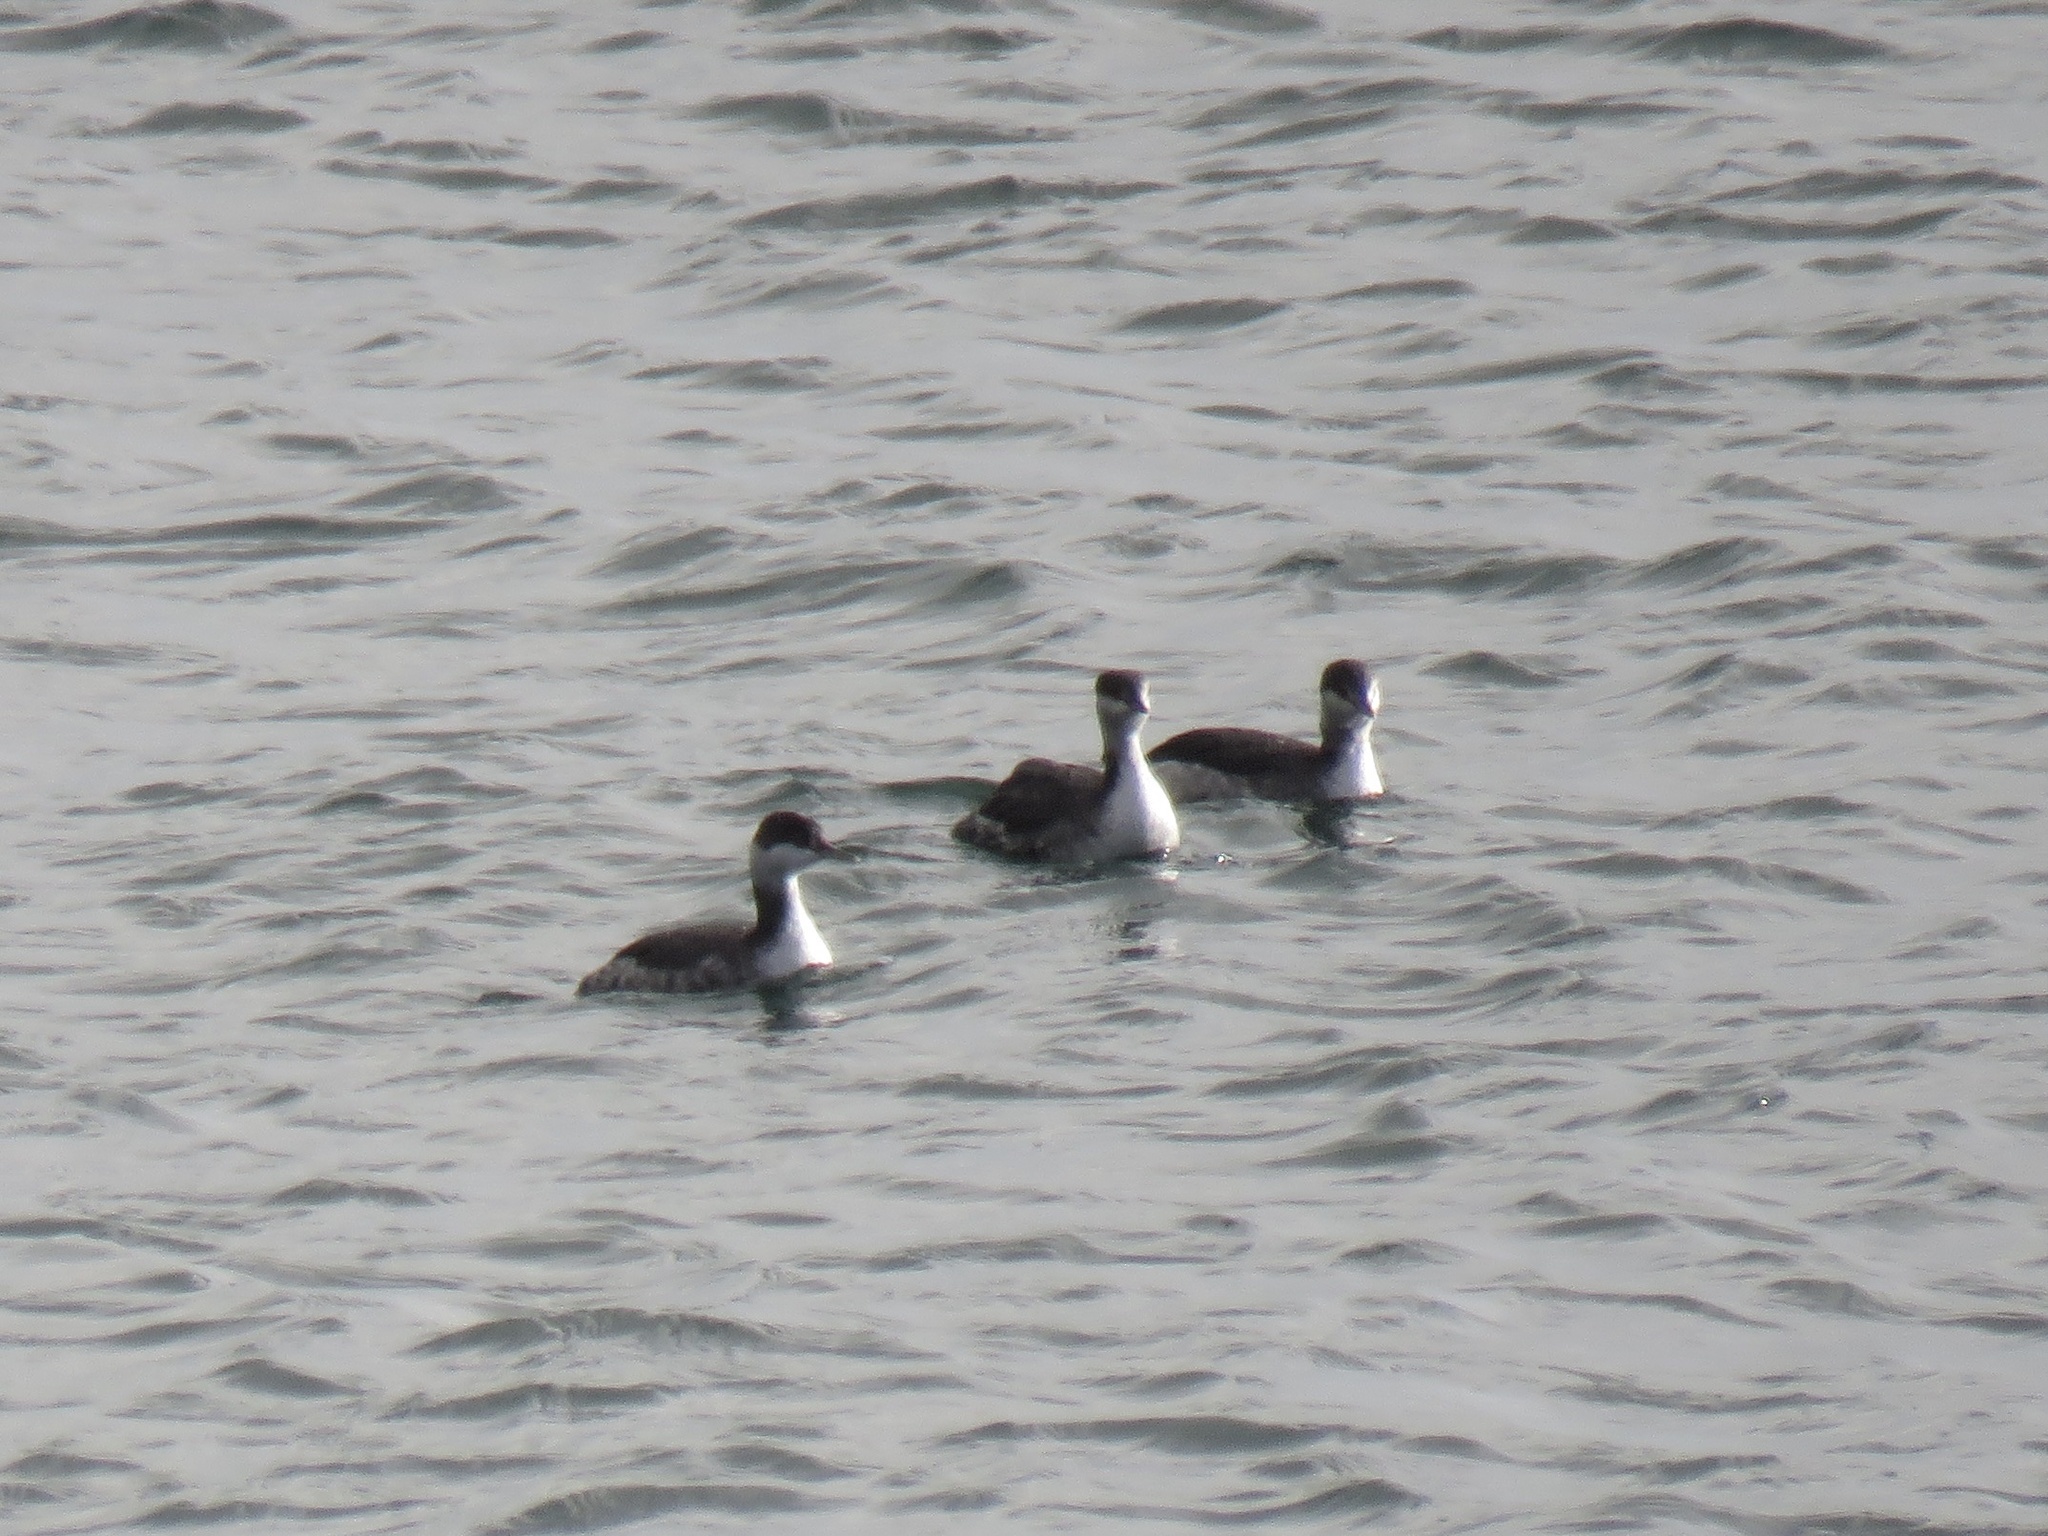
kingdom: Animalia
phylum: Chordata
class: Aves
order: Podicipediformes
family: Podicipedidae
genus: Podiceps
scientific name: Podiceps auritus
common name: Horned grebe
